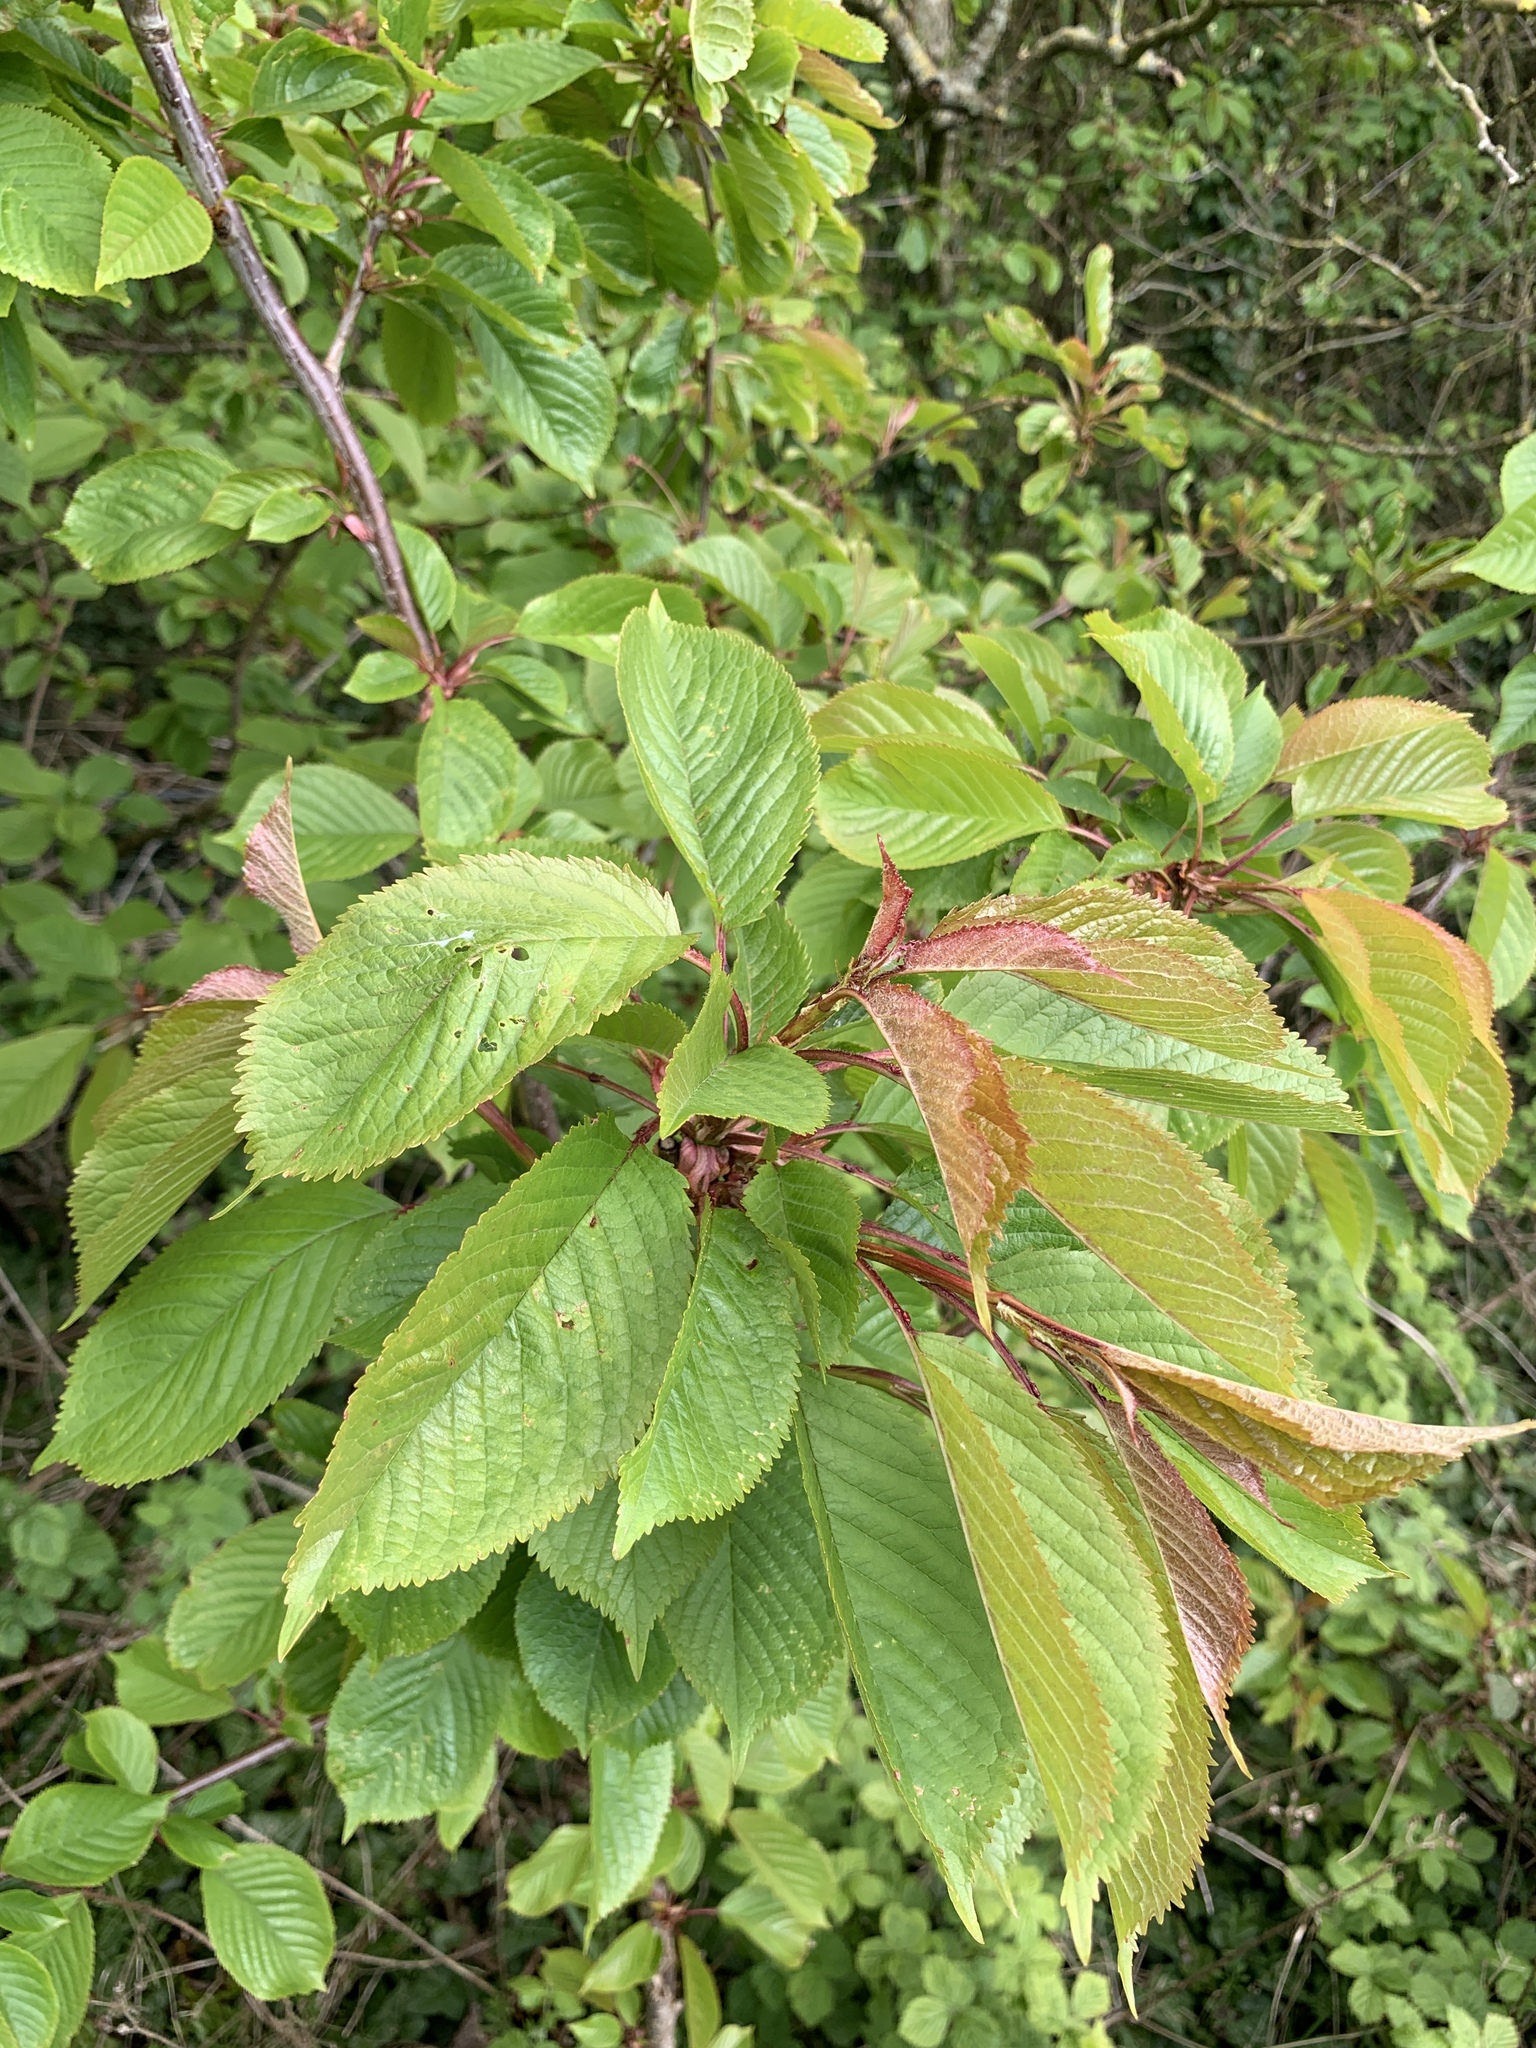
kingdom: Plantae
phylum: Tracheophyta
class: Magnoliopsida
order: Rosales
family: Rosaceae
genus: Prunus
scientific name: Prunus avium
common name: Sweet cherry
